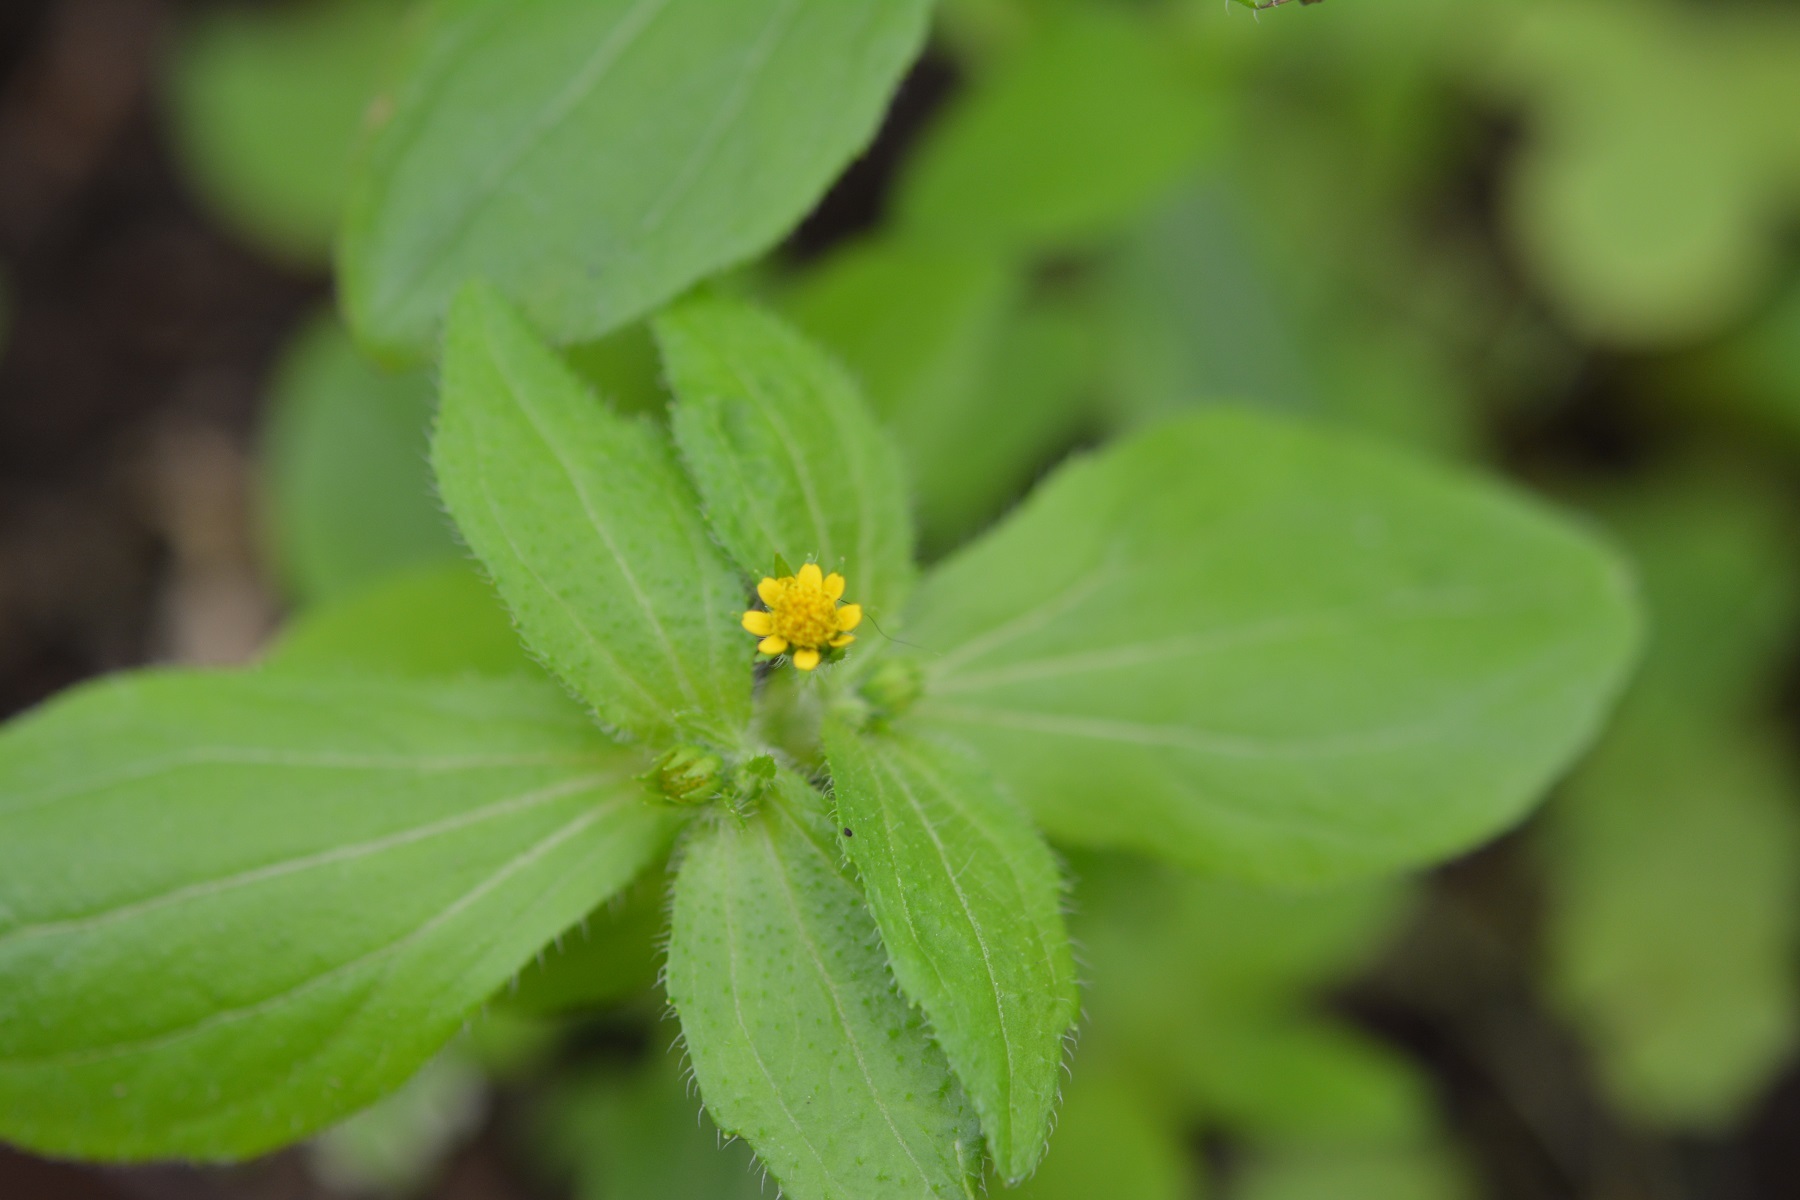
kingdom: Plantae
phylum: Tracheophyta
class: Magnoliopsida
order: Asterales
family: Asteraceae
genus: Jaegeria
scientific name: Jaegeria hirta
